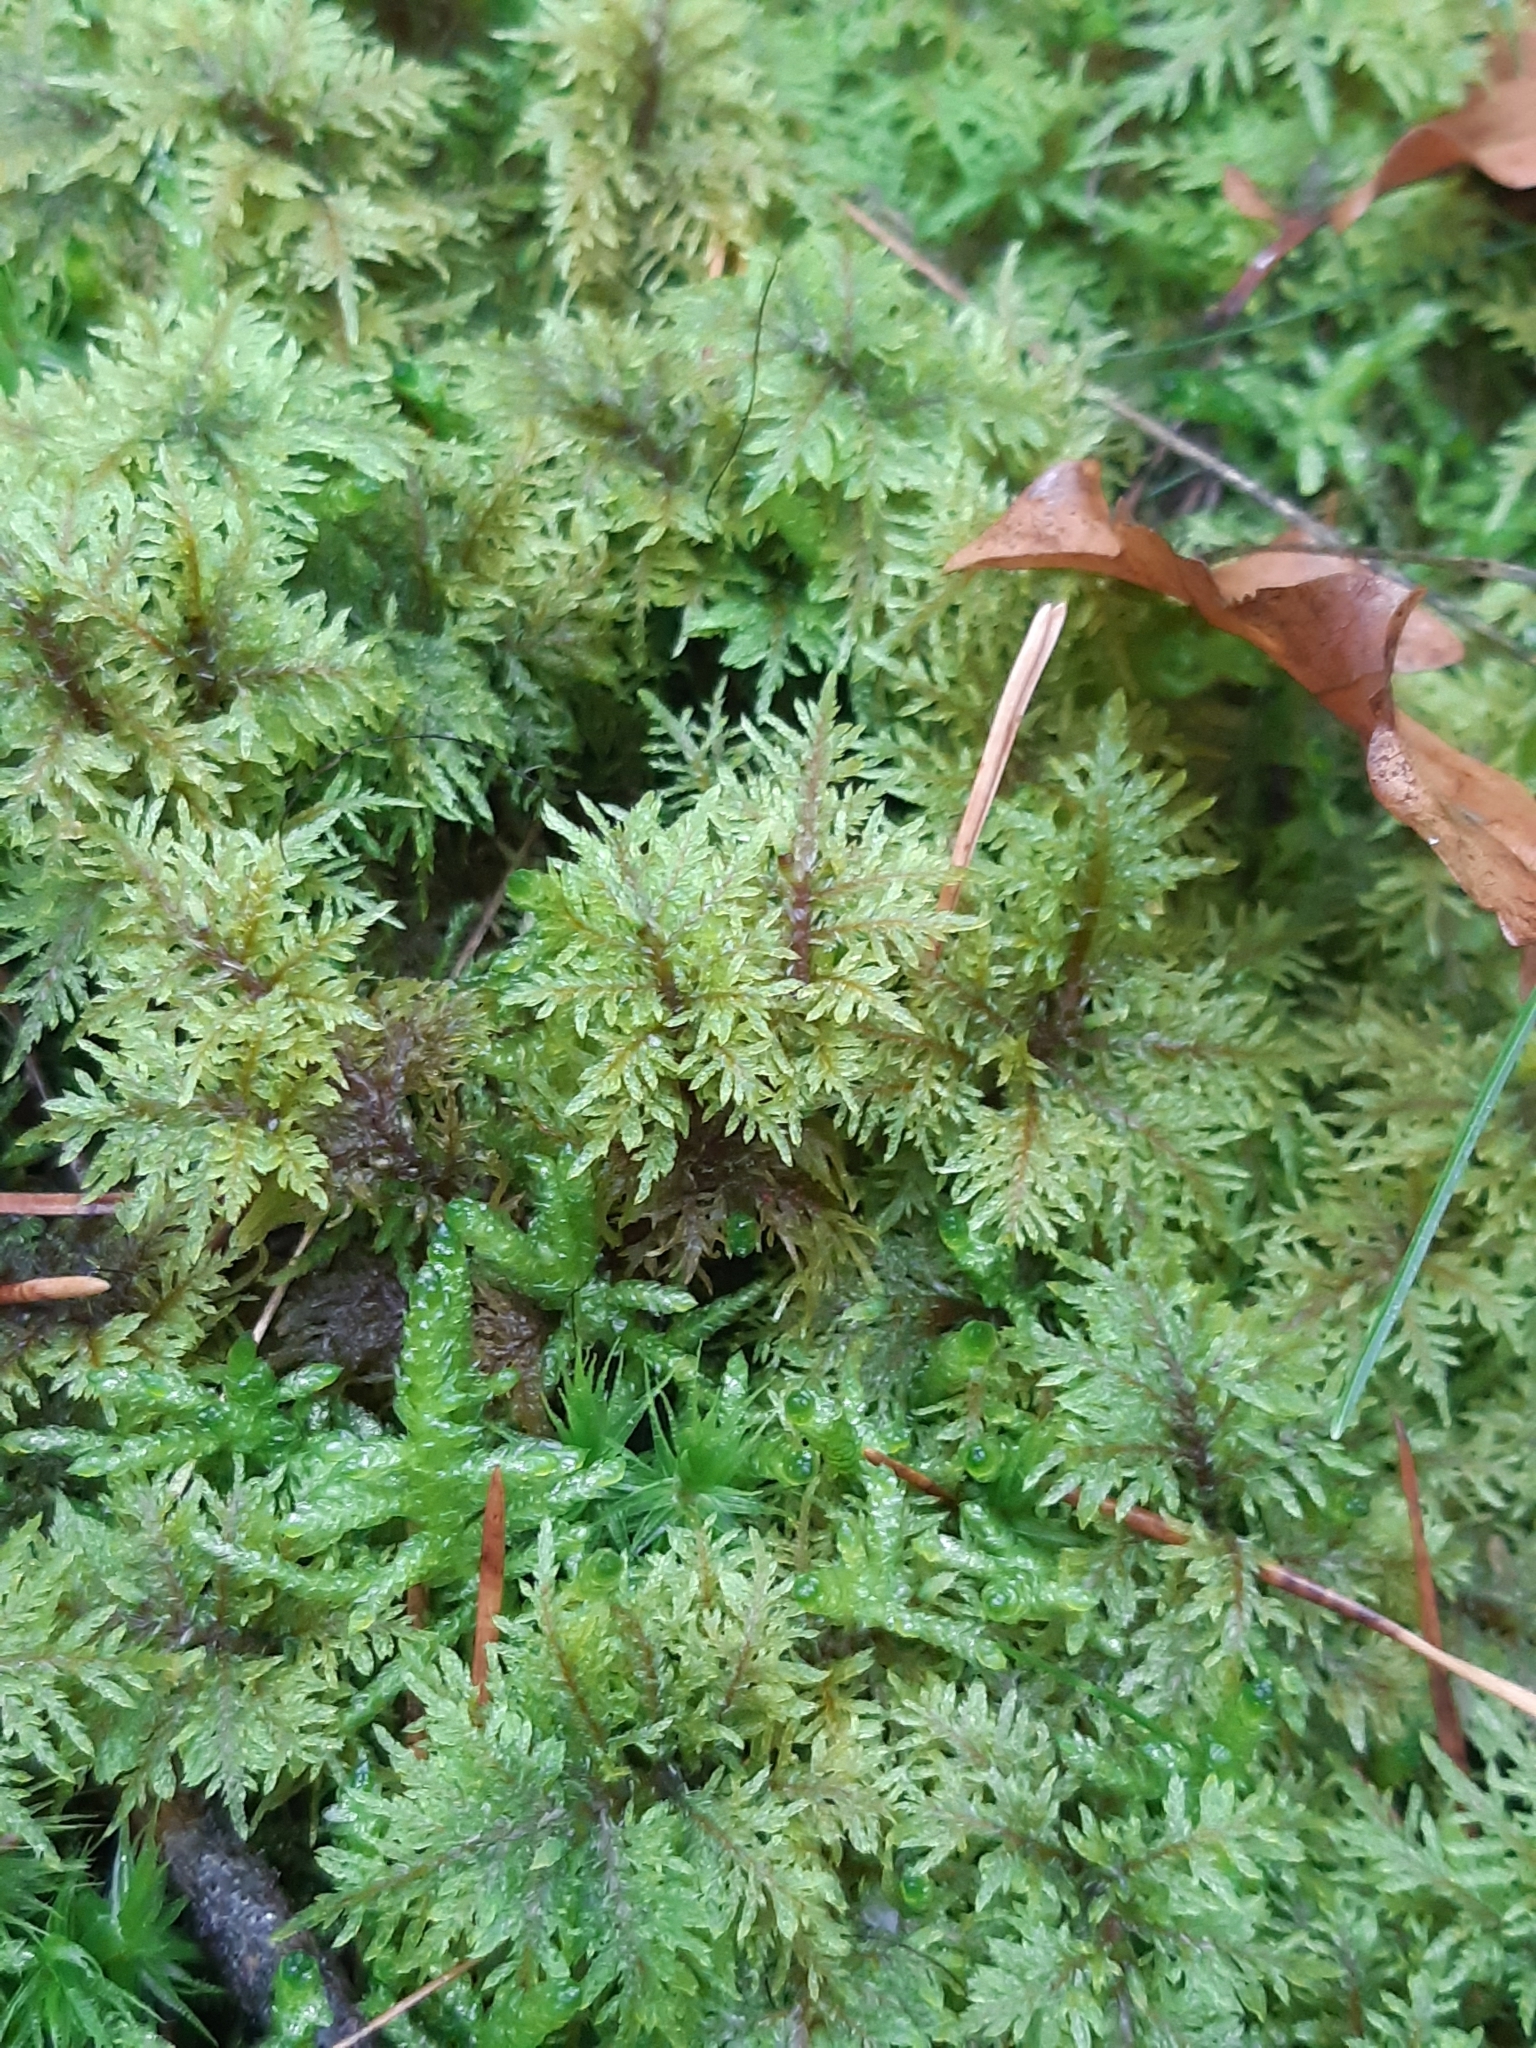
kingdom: Plantae
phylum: Bryophyta
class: Bryopsida
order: Hypnales
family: Hylocomiaceae
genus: Hylocomium
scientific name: Hylocomium splendens
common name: Stairstep moss
